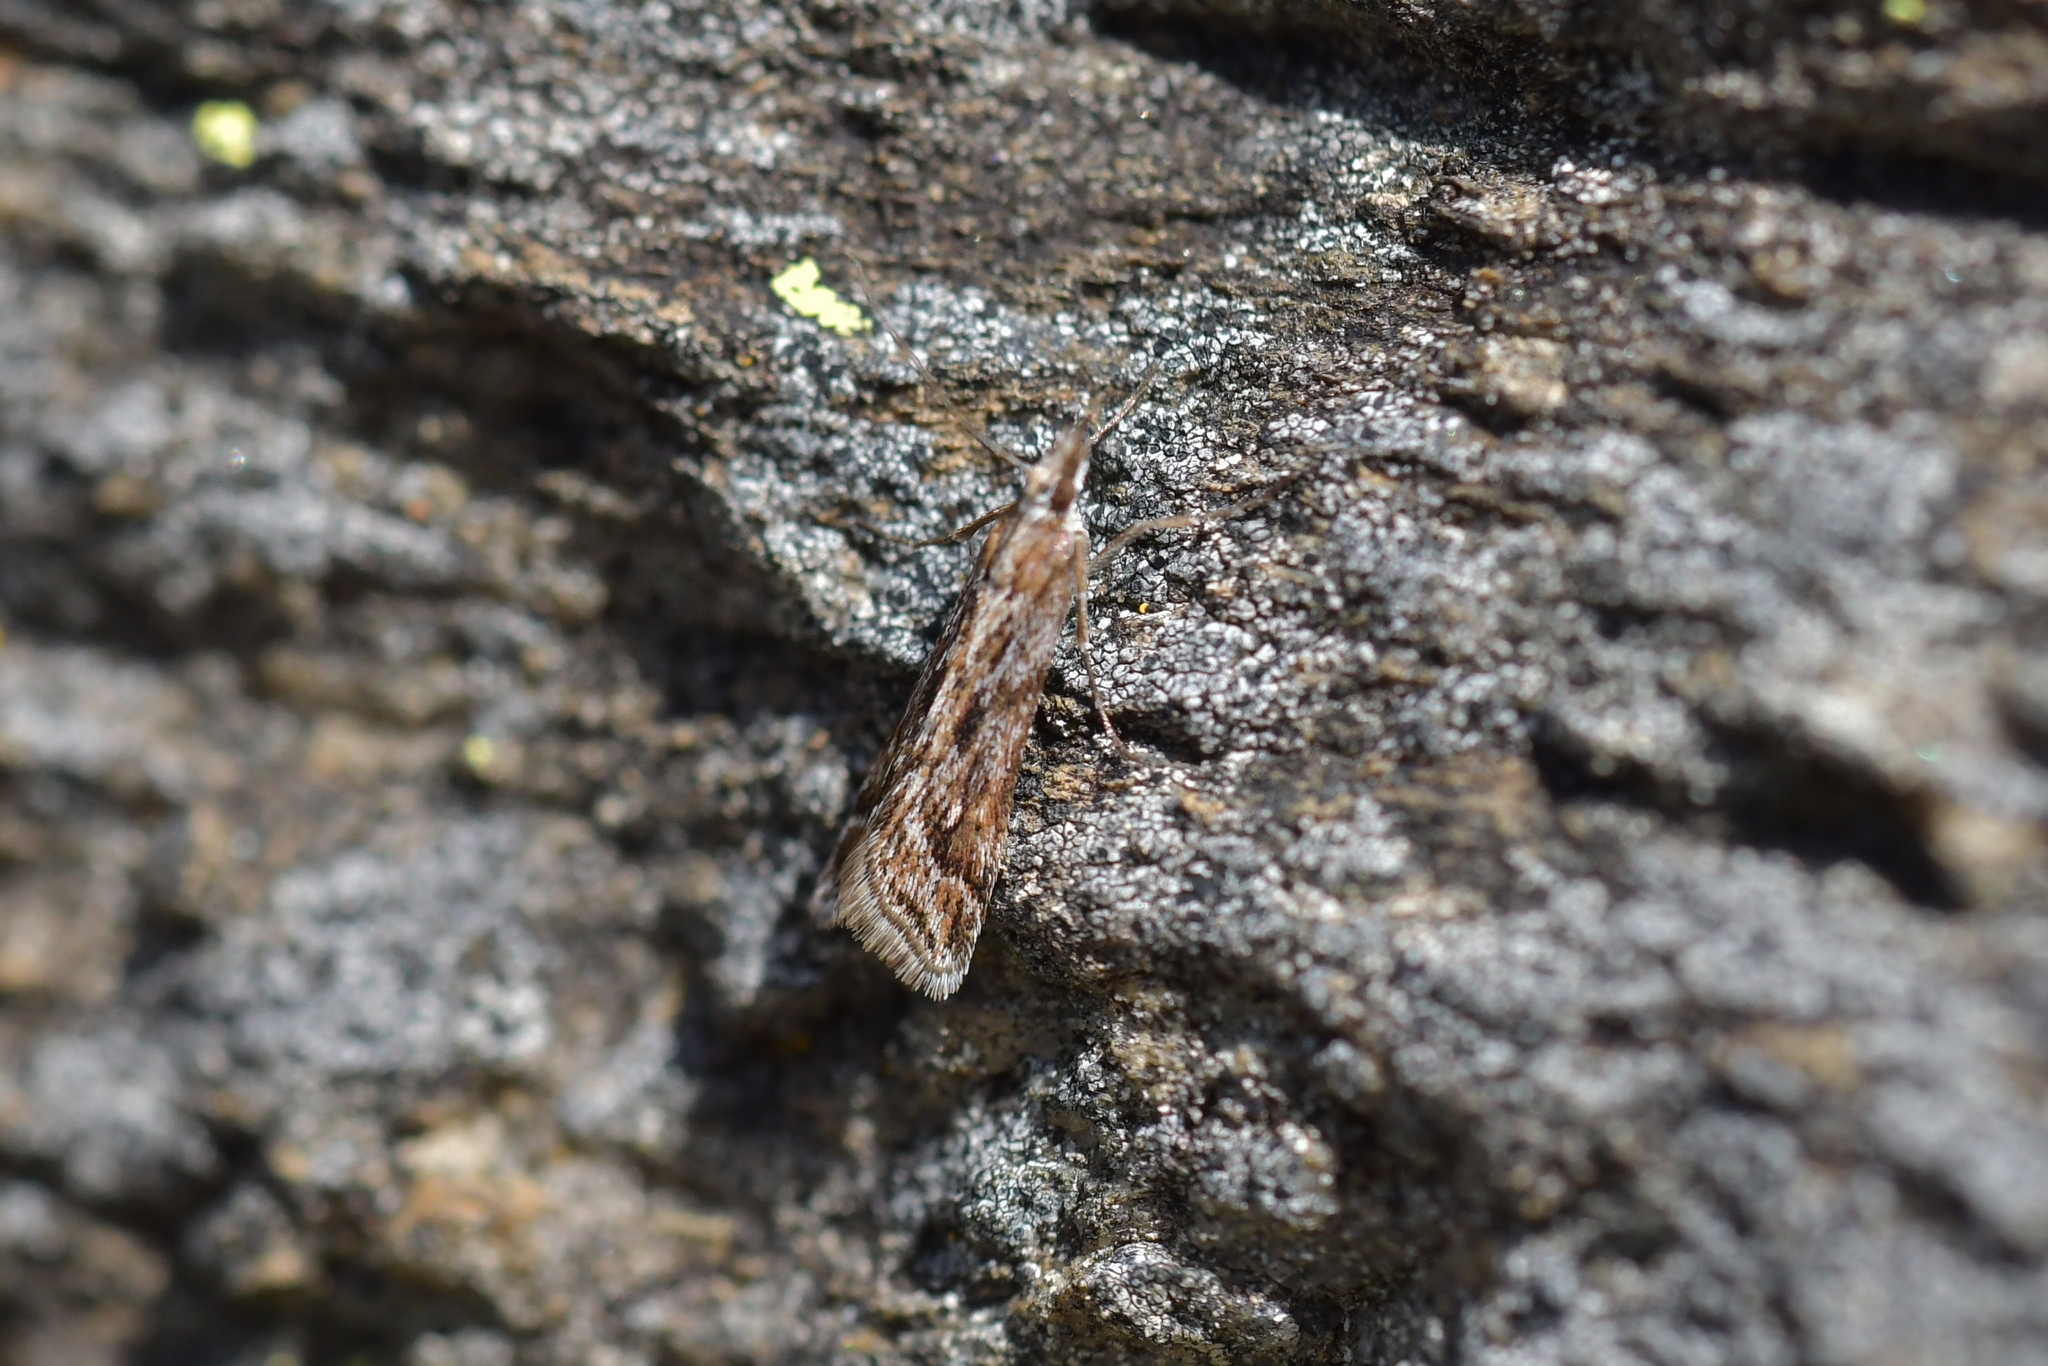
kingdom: Animalia
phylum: Arthropoda
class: Insecta
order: Lepidoptera
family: Crambidae
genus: Scoparia
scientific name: Scoparia exilis
